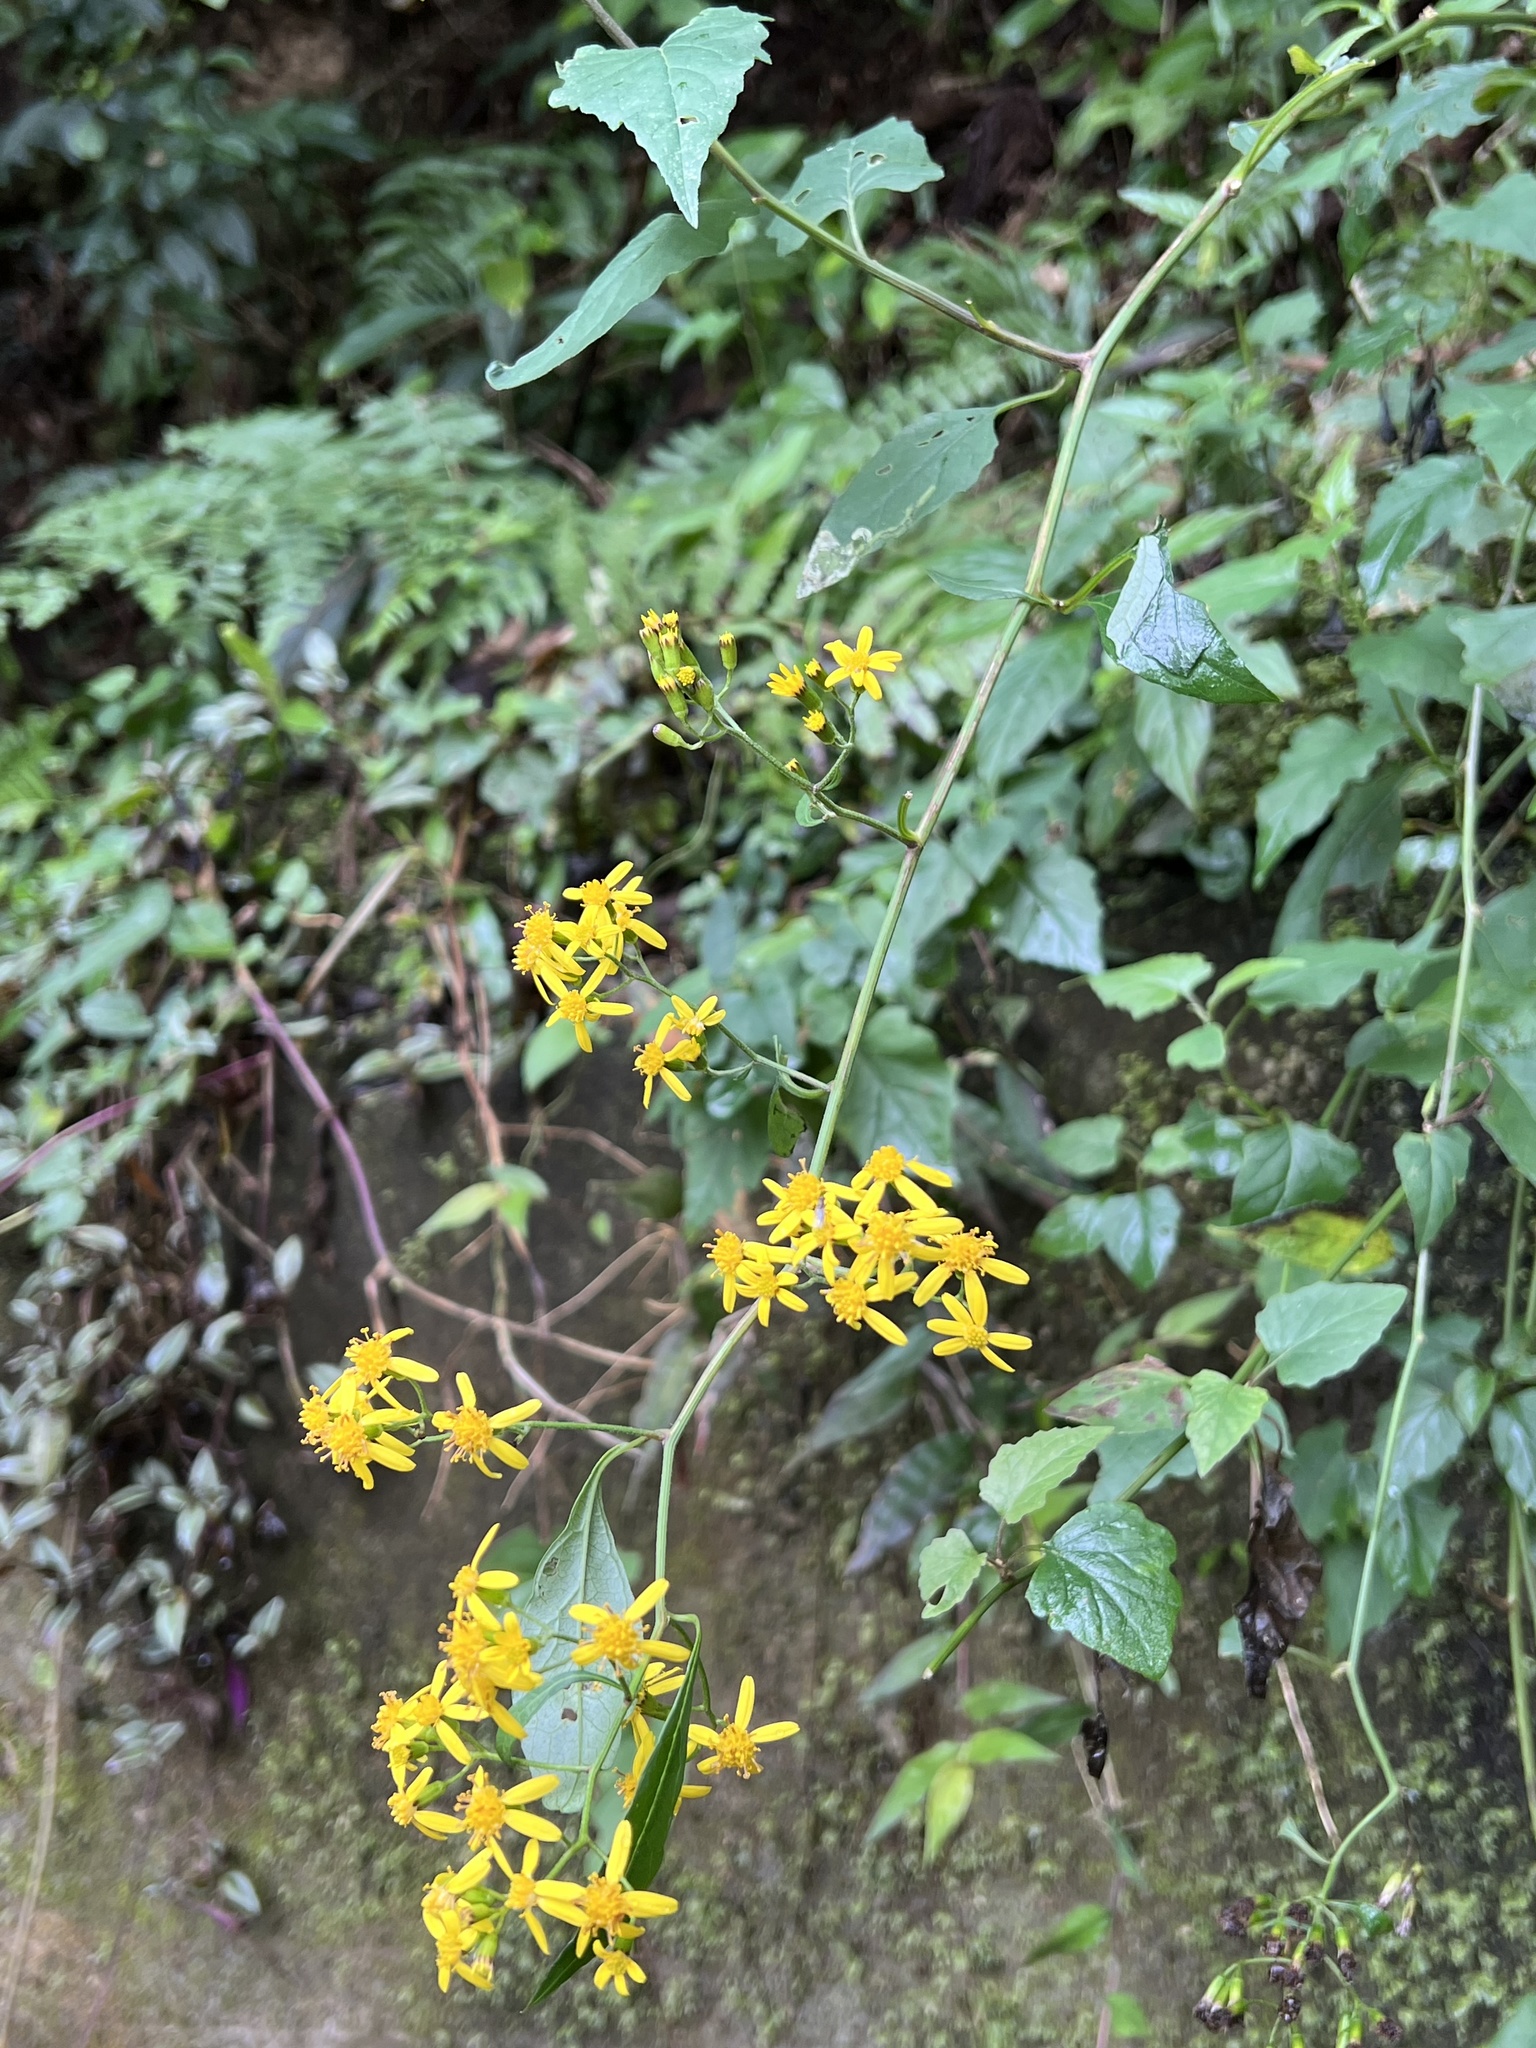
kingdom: Plantae
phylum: Tracheophyta
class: Magnoliopsida
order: Asterales
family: Asteraceae
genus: Senecio
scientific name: Senecio scandens
